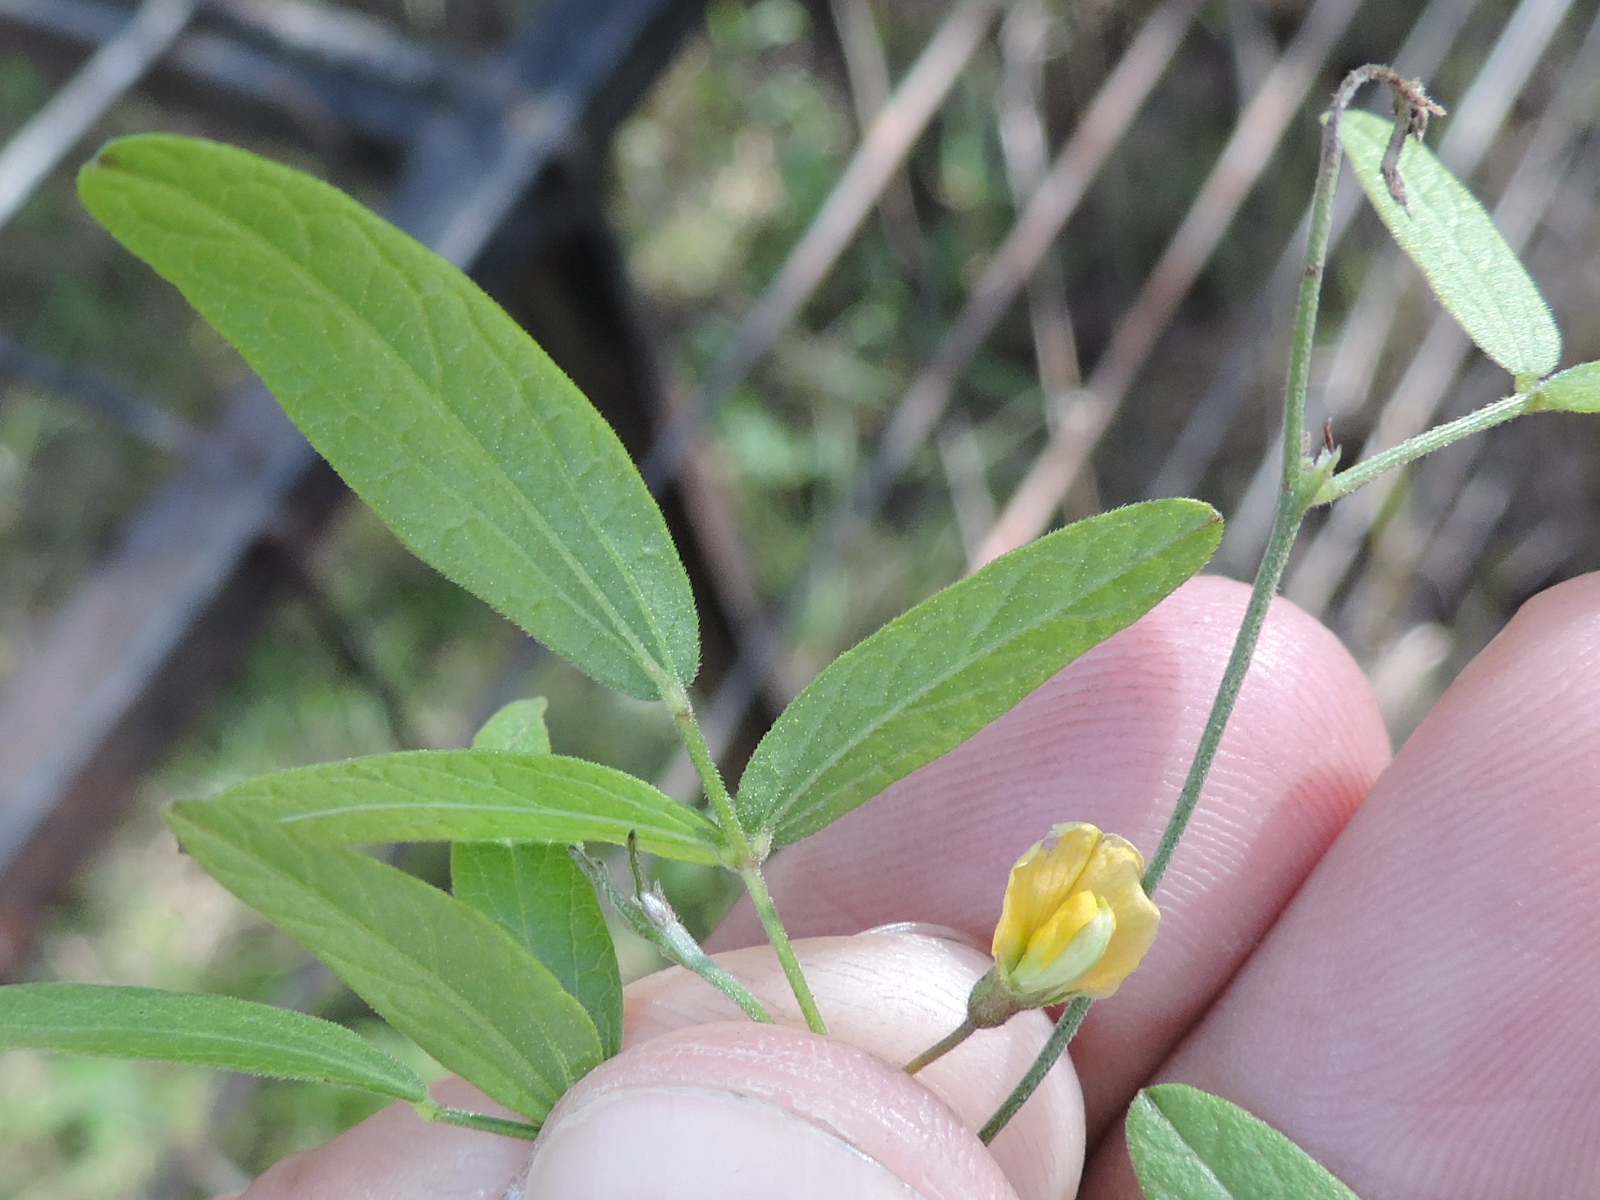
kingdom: Plantae
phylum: Tracheophyta
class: Magnoliopsida
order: Fabales
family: Fabaceae
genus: Rhynchosia
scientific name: Rhynchosia senna
